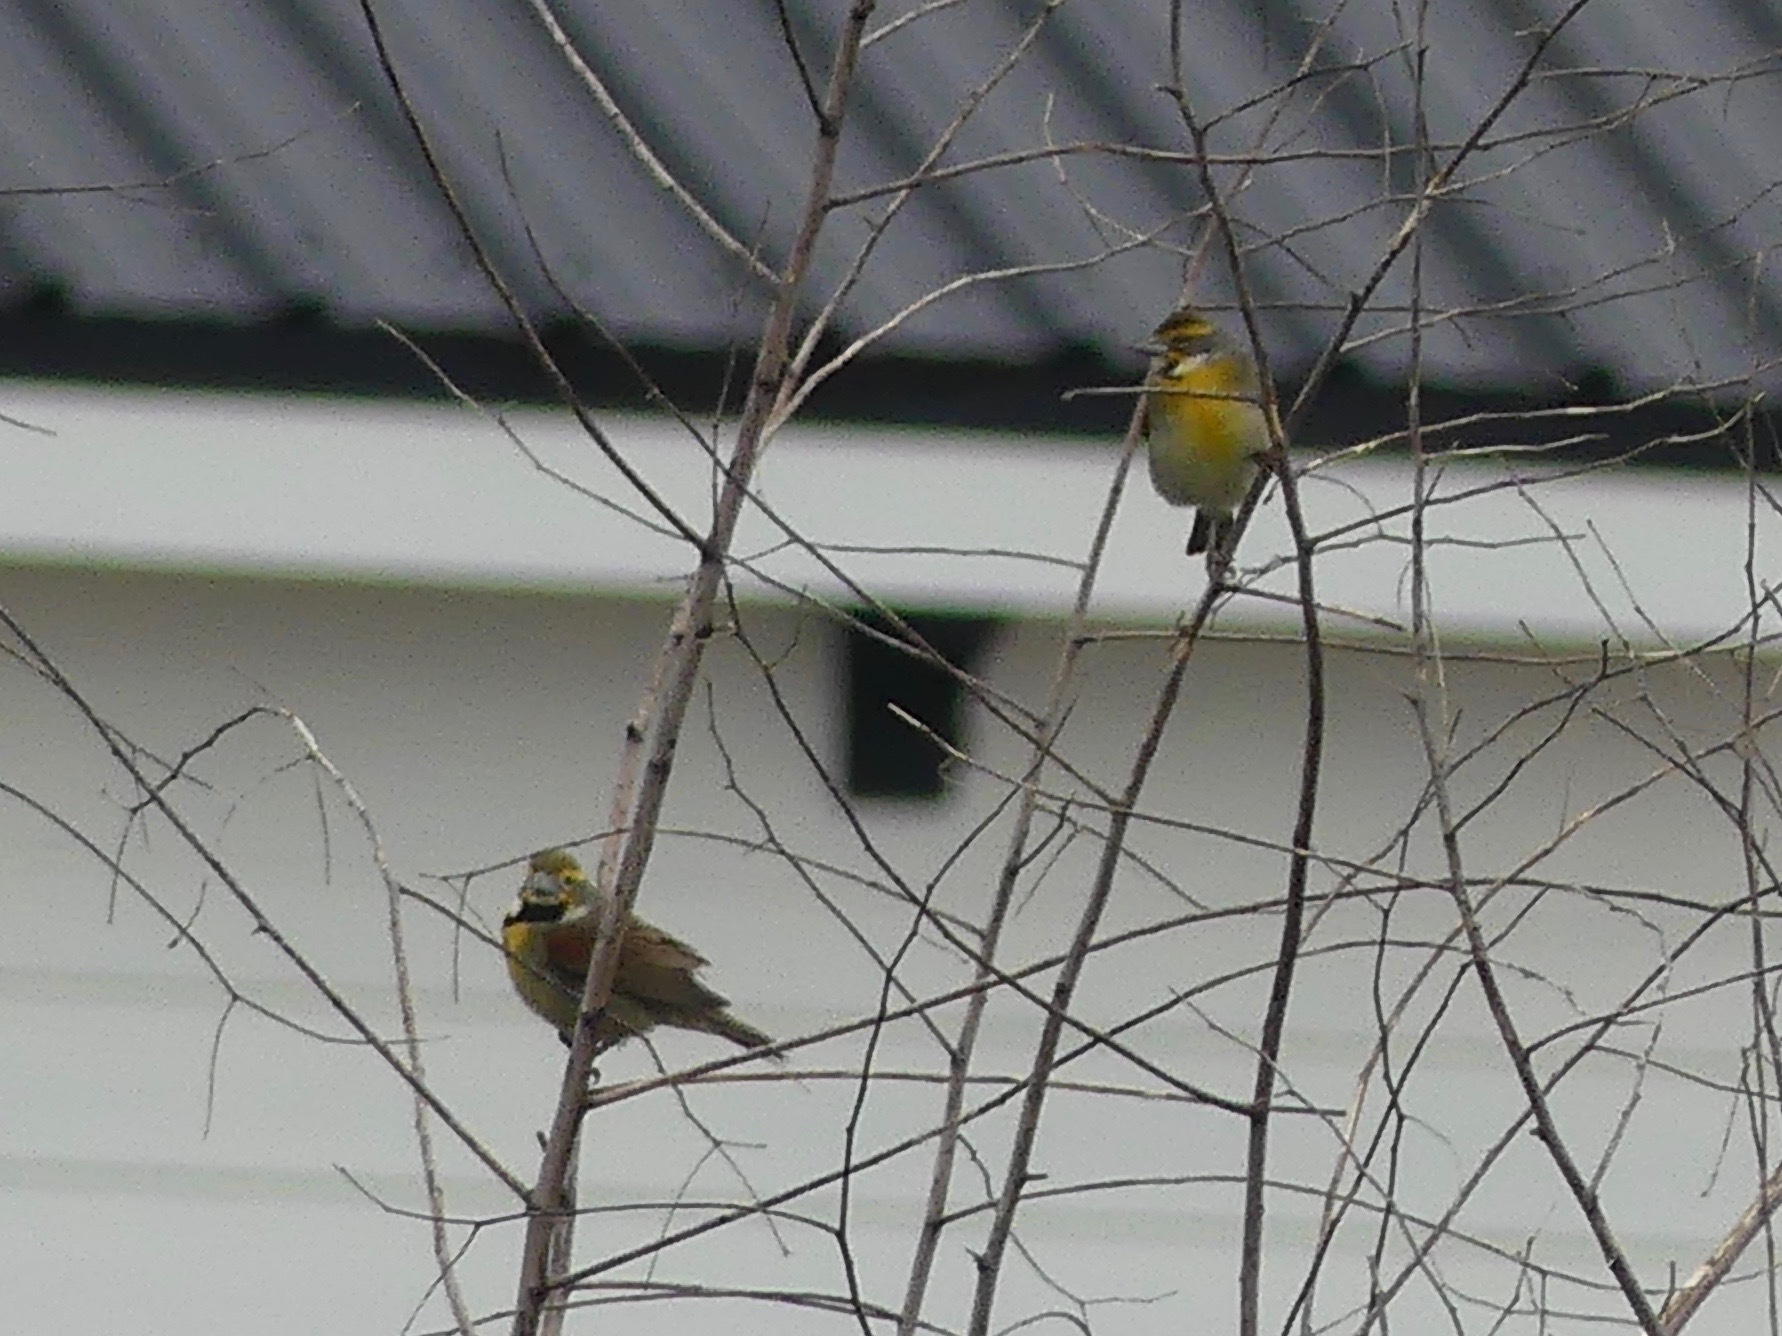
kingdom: Animalia
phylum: Chordata
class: Aves
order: Passeriformes
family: Cardinalidae
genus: Spiza
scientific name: Spiza americana
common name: Dickcissel
